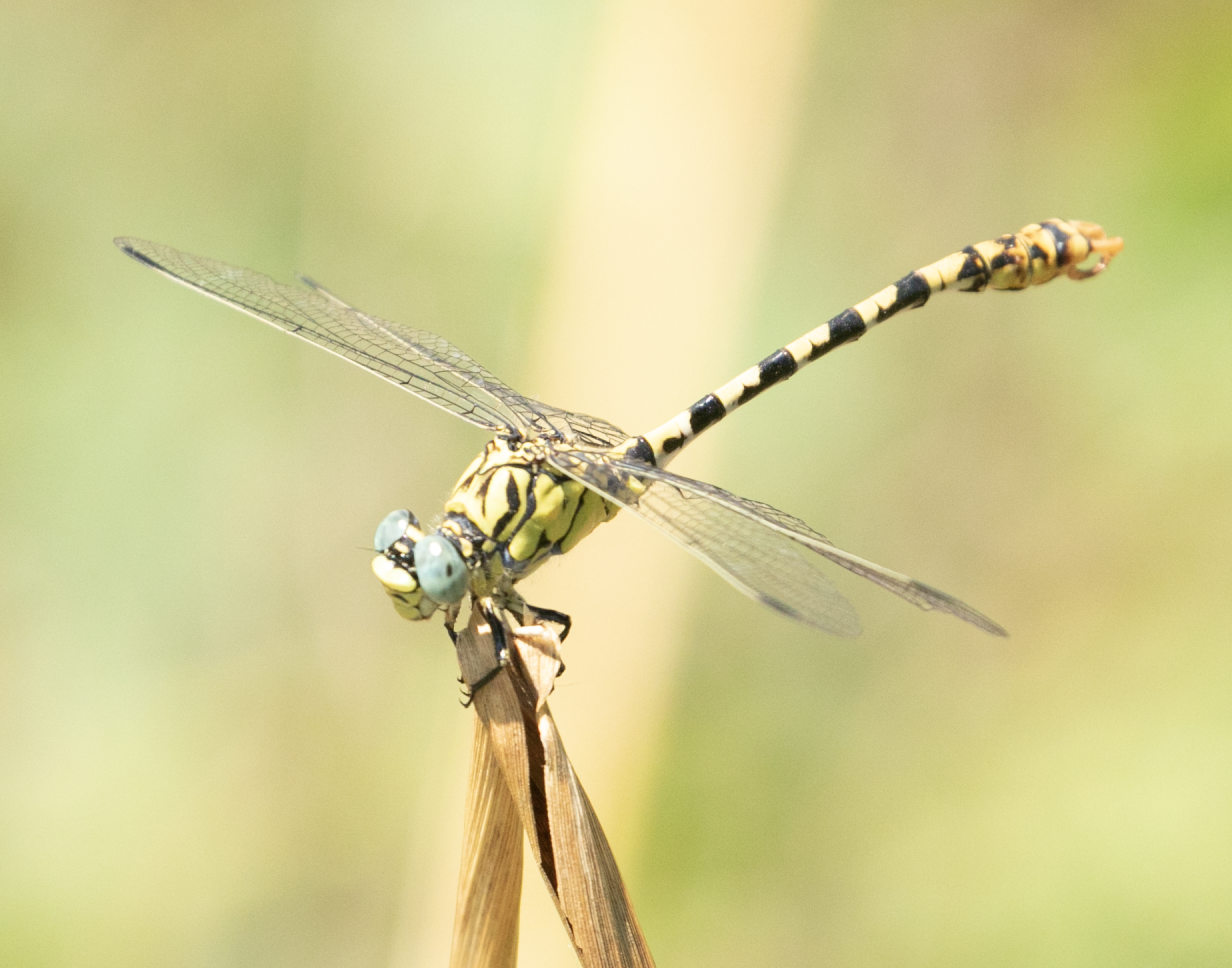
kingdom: Animalia
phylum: Arthropoda
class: Insecta
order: Odonata
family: Gomphidae
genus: Onychogomphus
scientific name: Onychogomphus forcipatus
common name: Small pincertail
